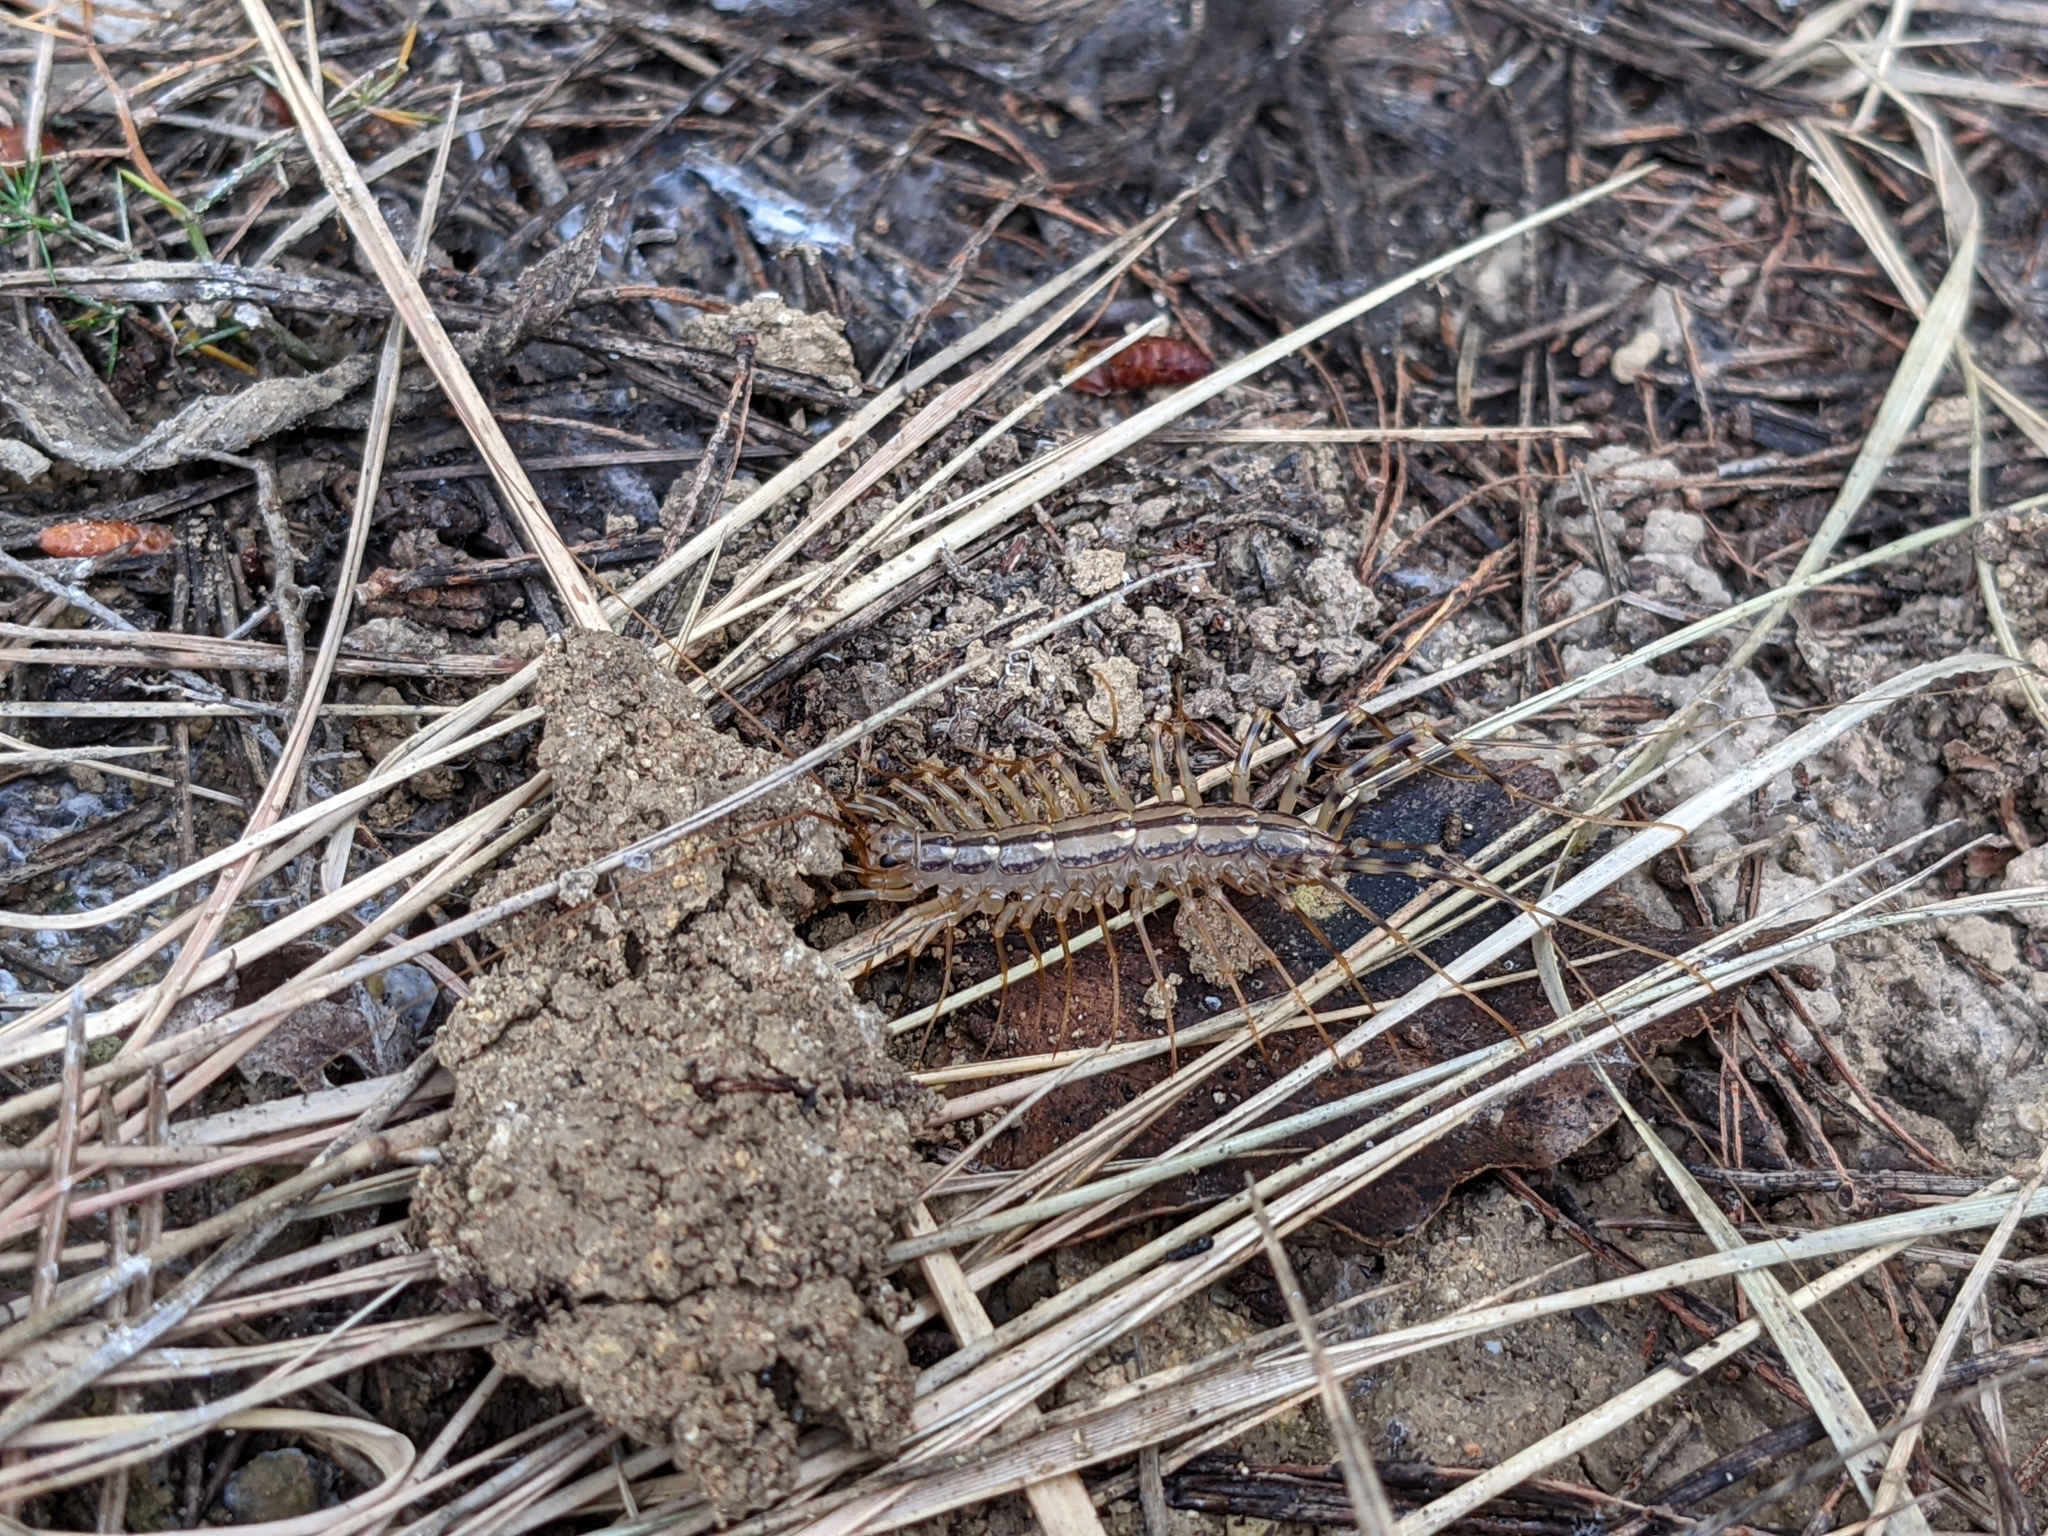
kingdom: Animalia
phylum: Arthropoda
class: Chilopoda
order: Scutigeromorpha
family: Scutigeridae
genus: Scutigera
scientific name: Scutigera coleoptrata
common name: House centipede
